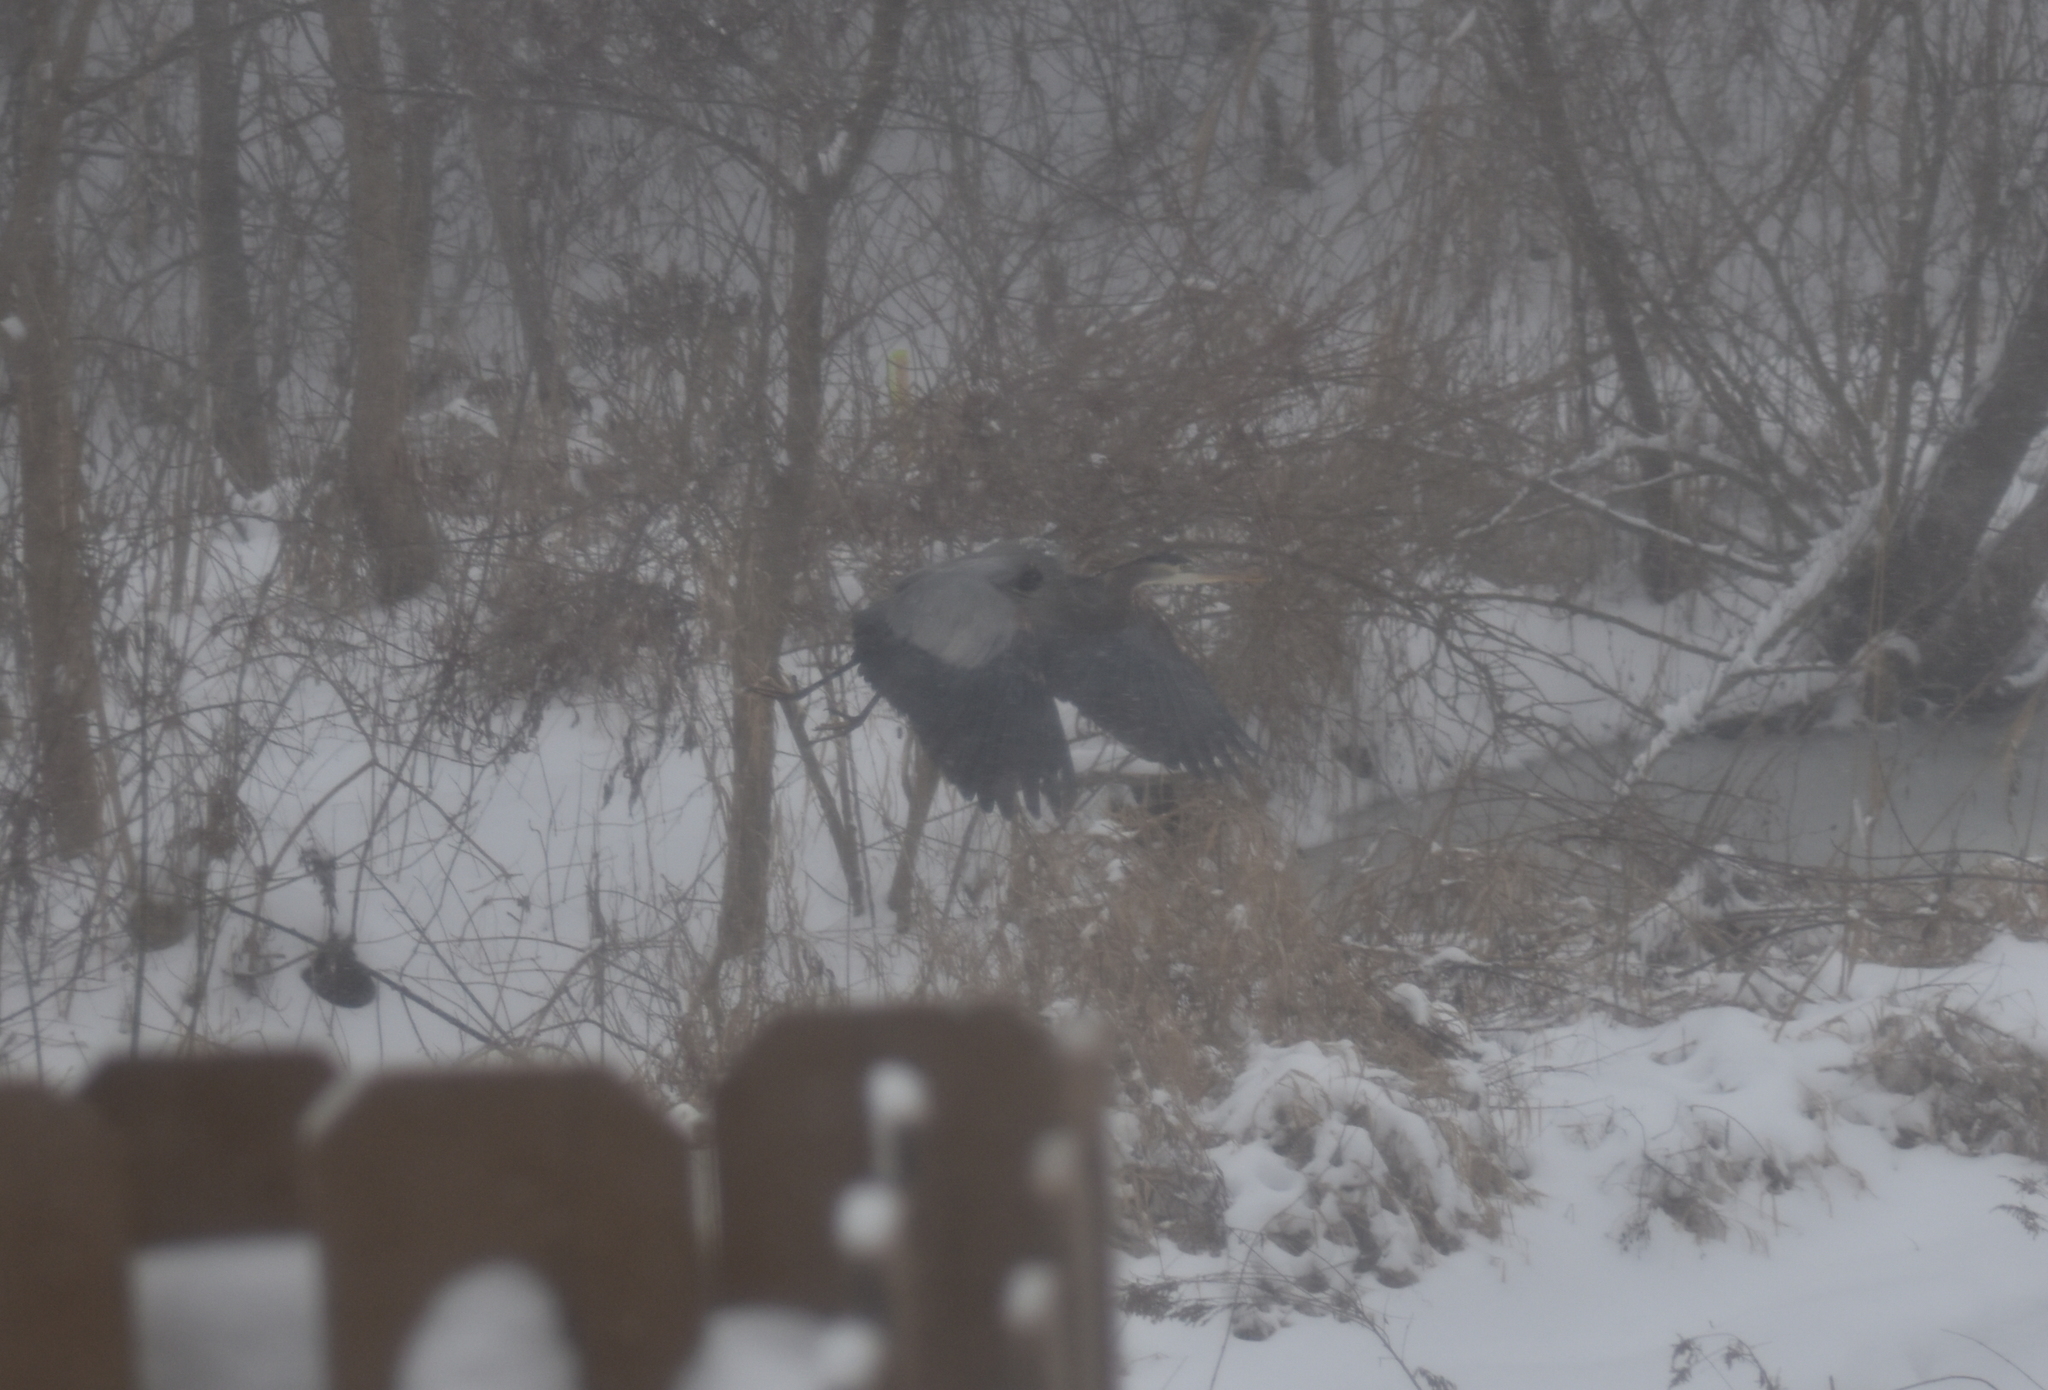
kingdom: Animalia
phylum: Chordata
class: Aves
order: Pelecaniformes
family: Ardeidae
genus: Ardea
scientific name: Ardea herodias
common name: Great blue heron
